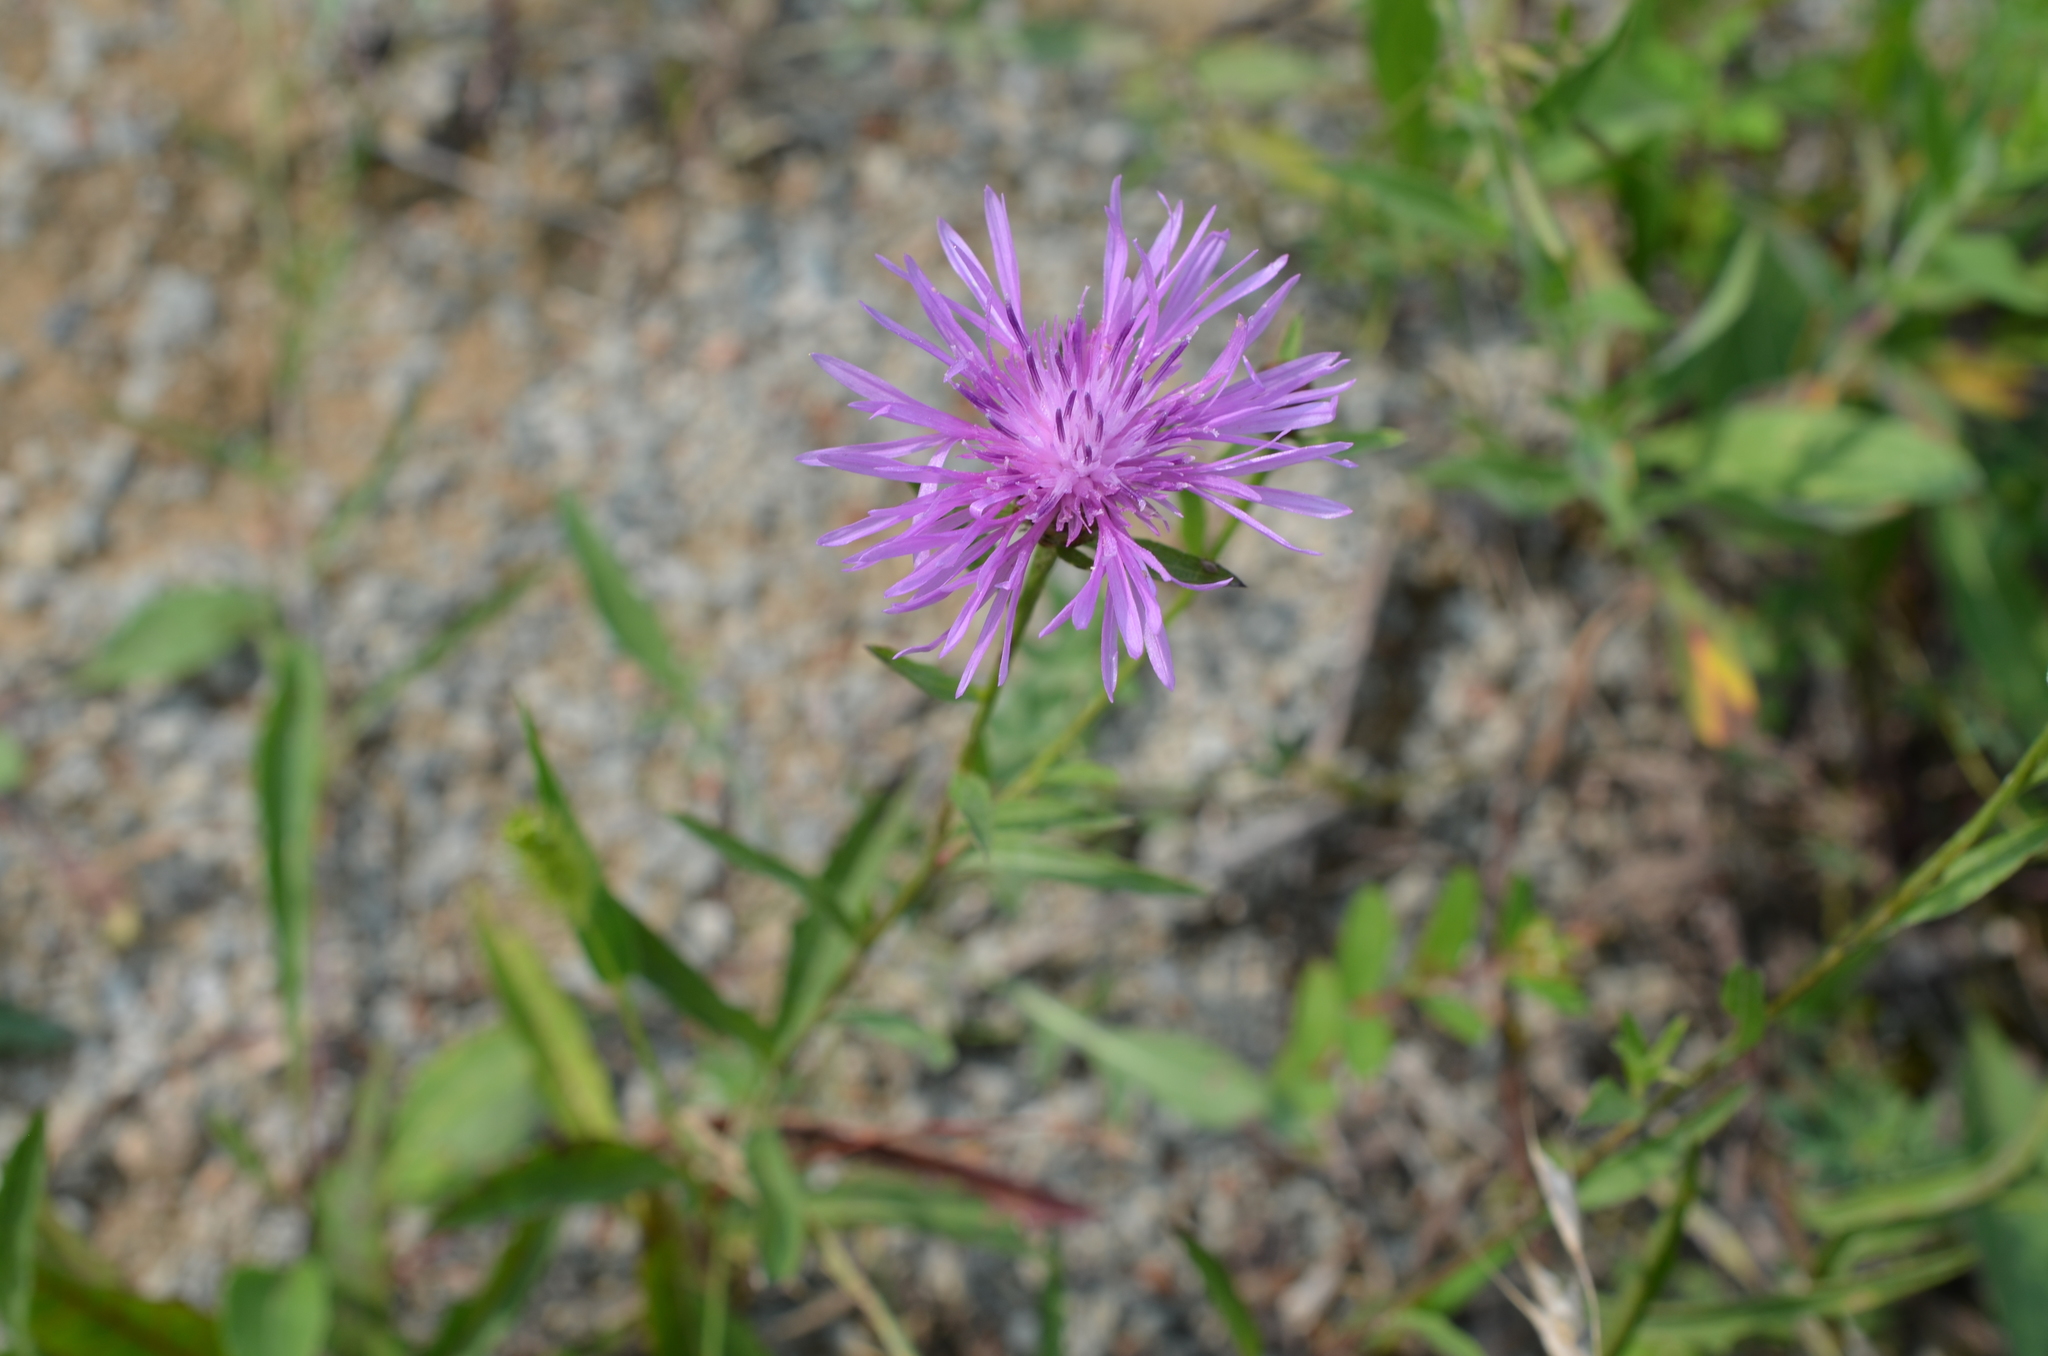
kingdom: Plantae
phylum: Tracheophyta
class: Magnoliopsida
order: Asterales
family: Asteraceae
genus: Centaurea
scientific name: Centaurea australis
